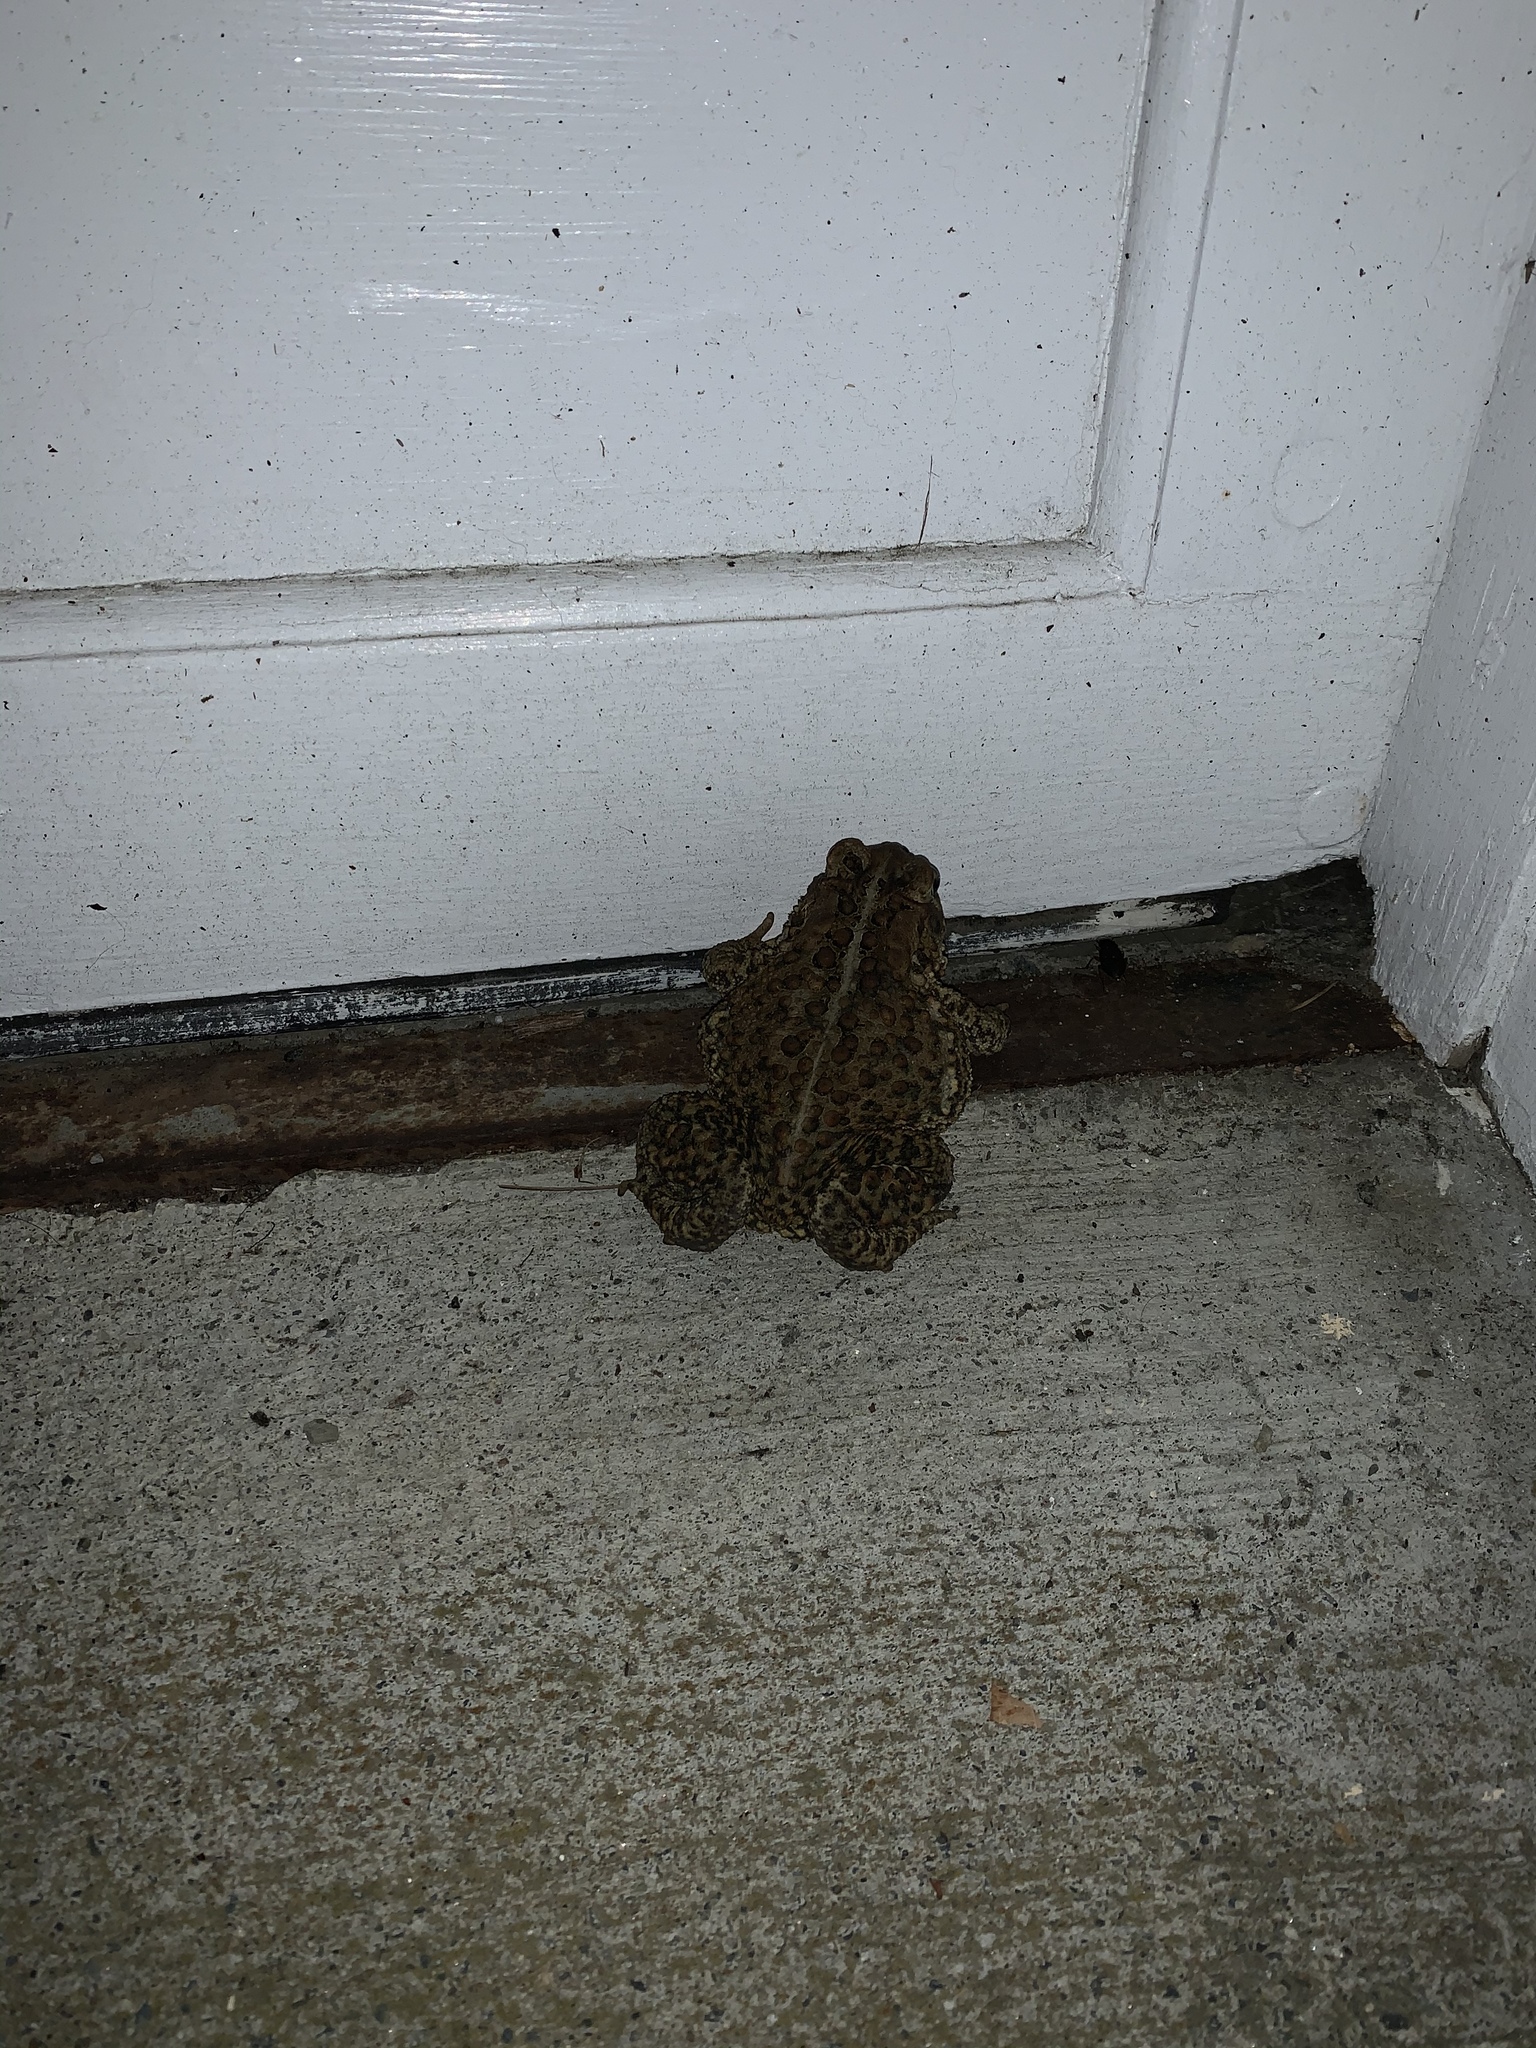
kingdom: Animalia
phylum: Chordata
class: Amphibia
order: Anura
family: Bufonidae
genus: Anaxyrus
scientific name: Anaxyrus americanus
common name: American toad
